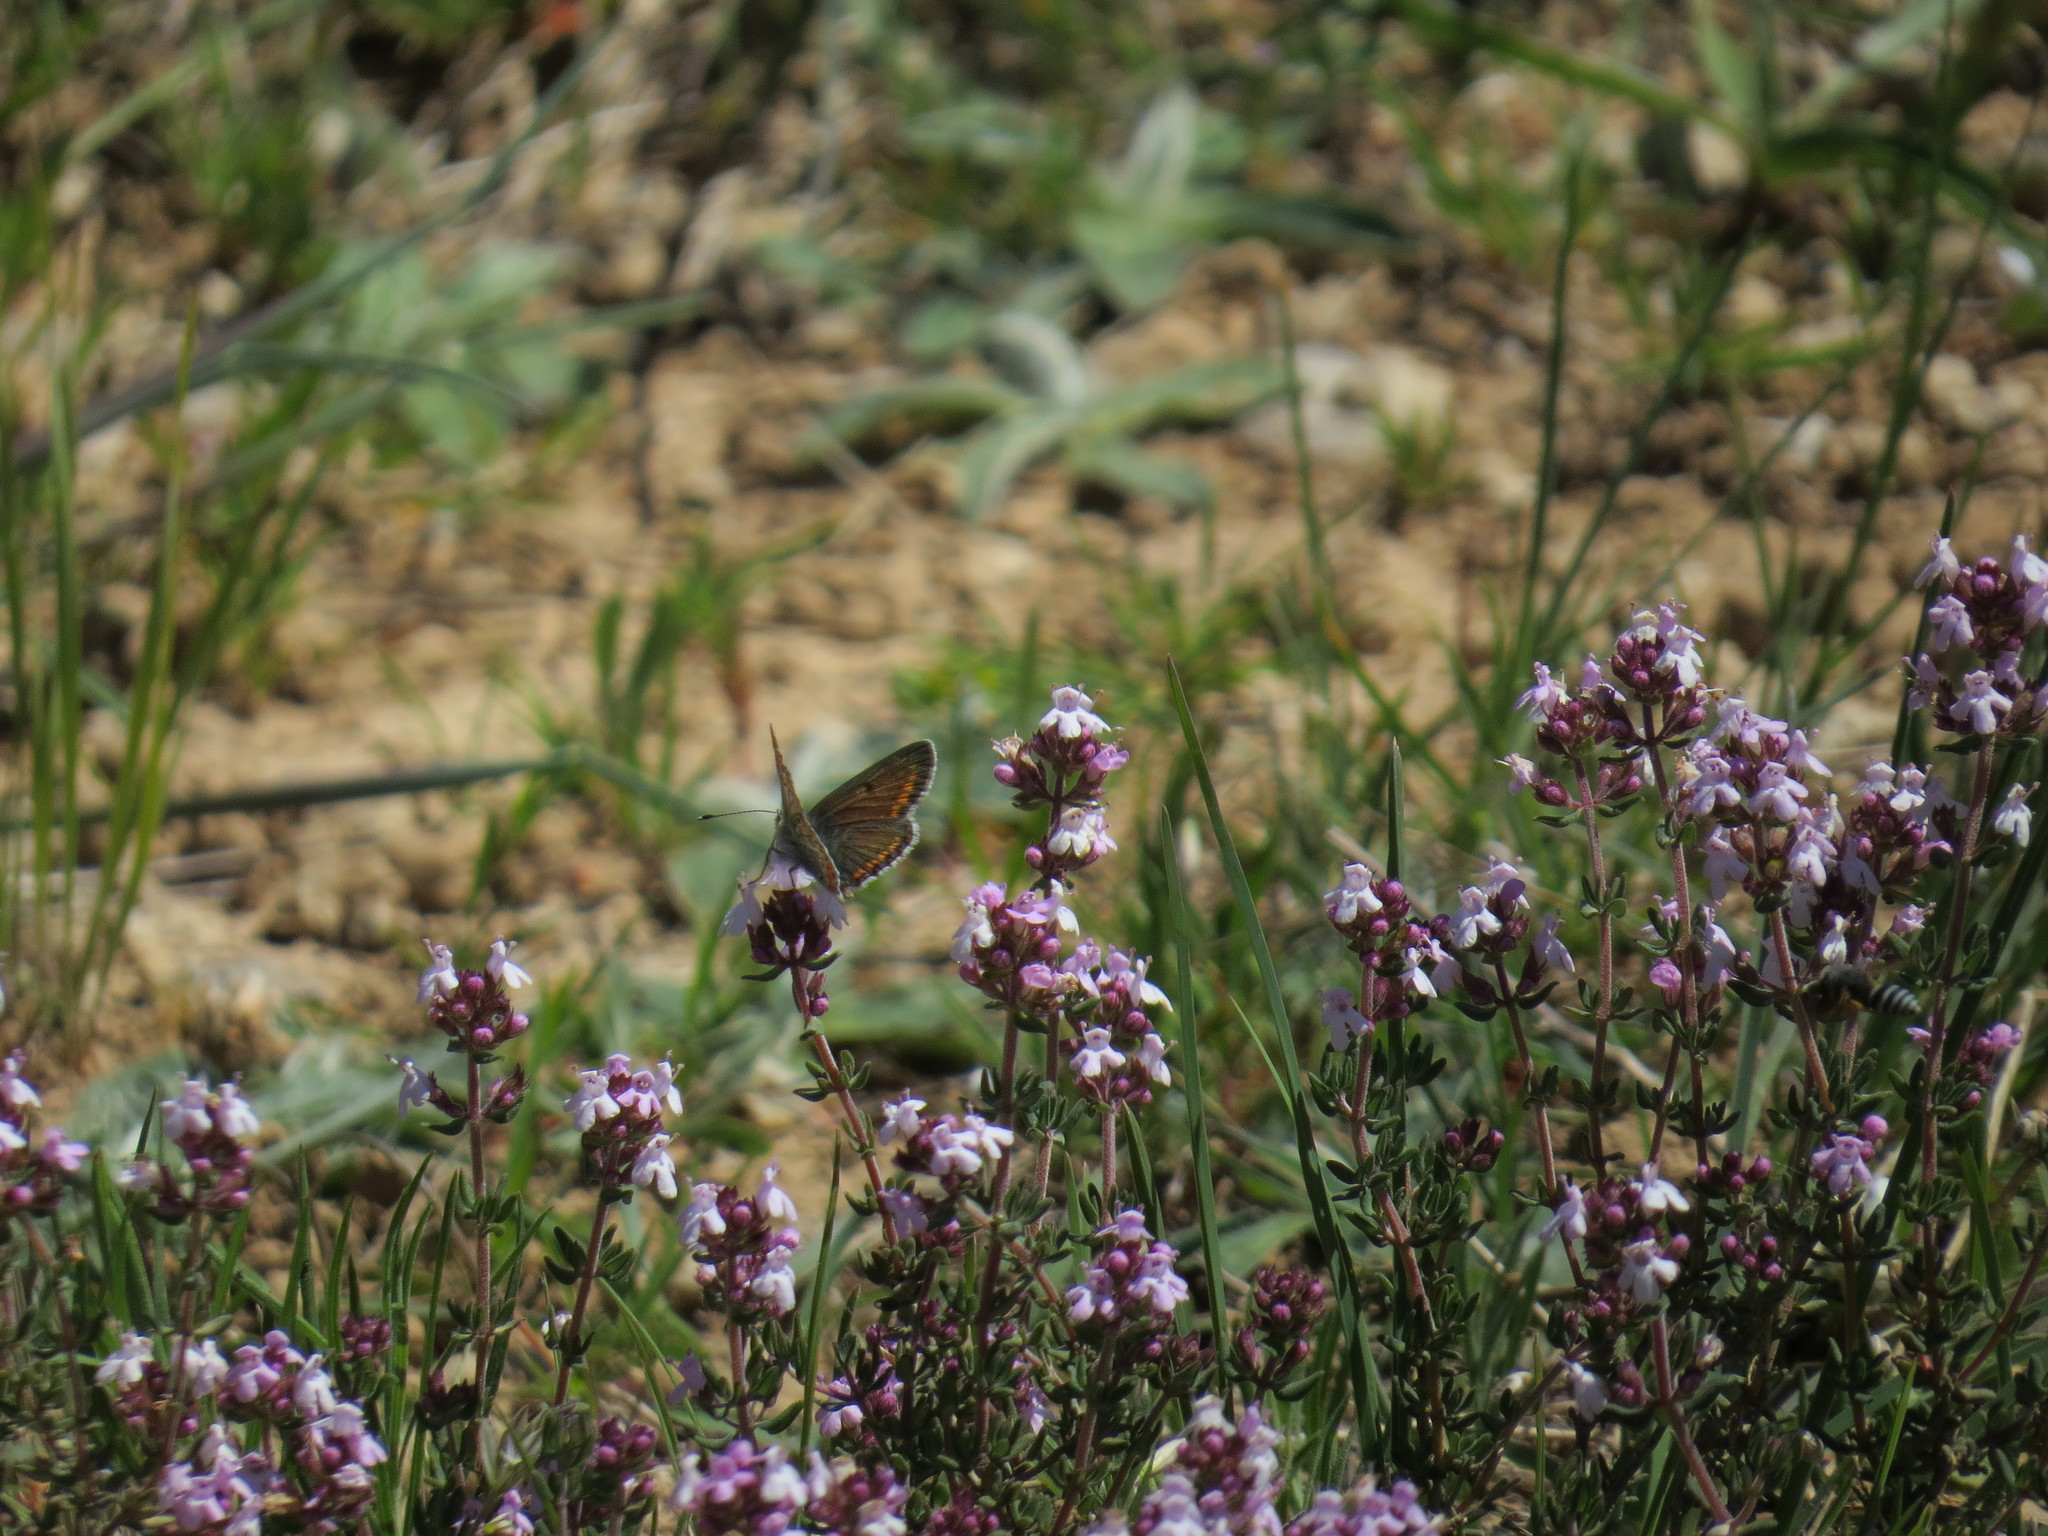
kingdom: Animalia
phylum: Arthropoda
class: Insecta
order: Lepidoptera
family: Lycaenidae
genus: Aricia
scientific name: Aricia agestis
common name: Brown argus
